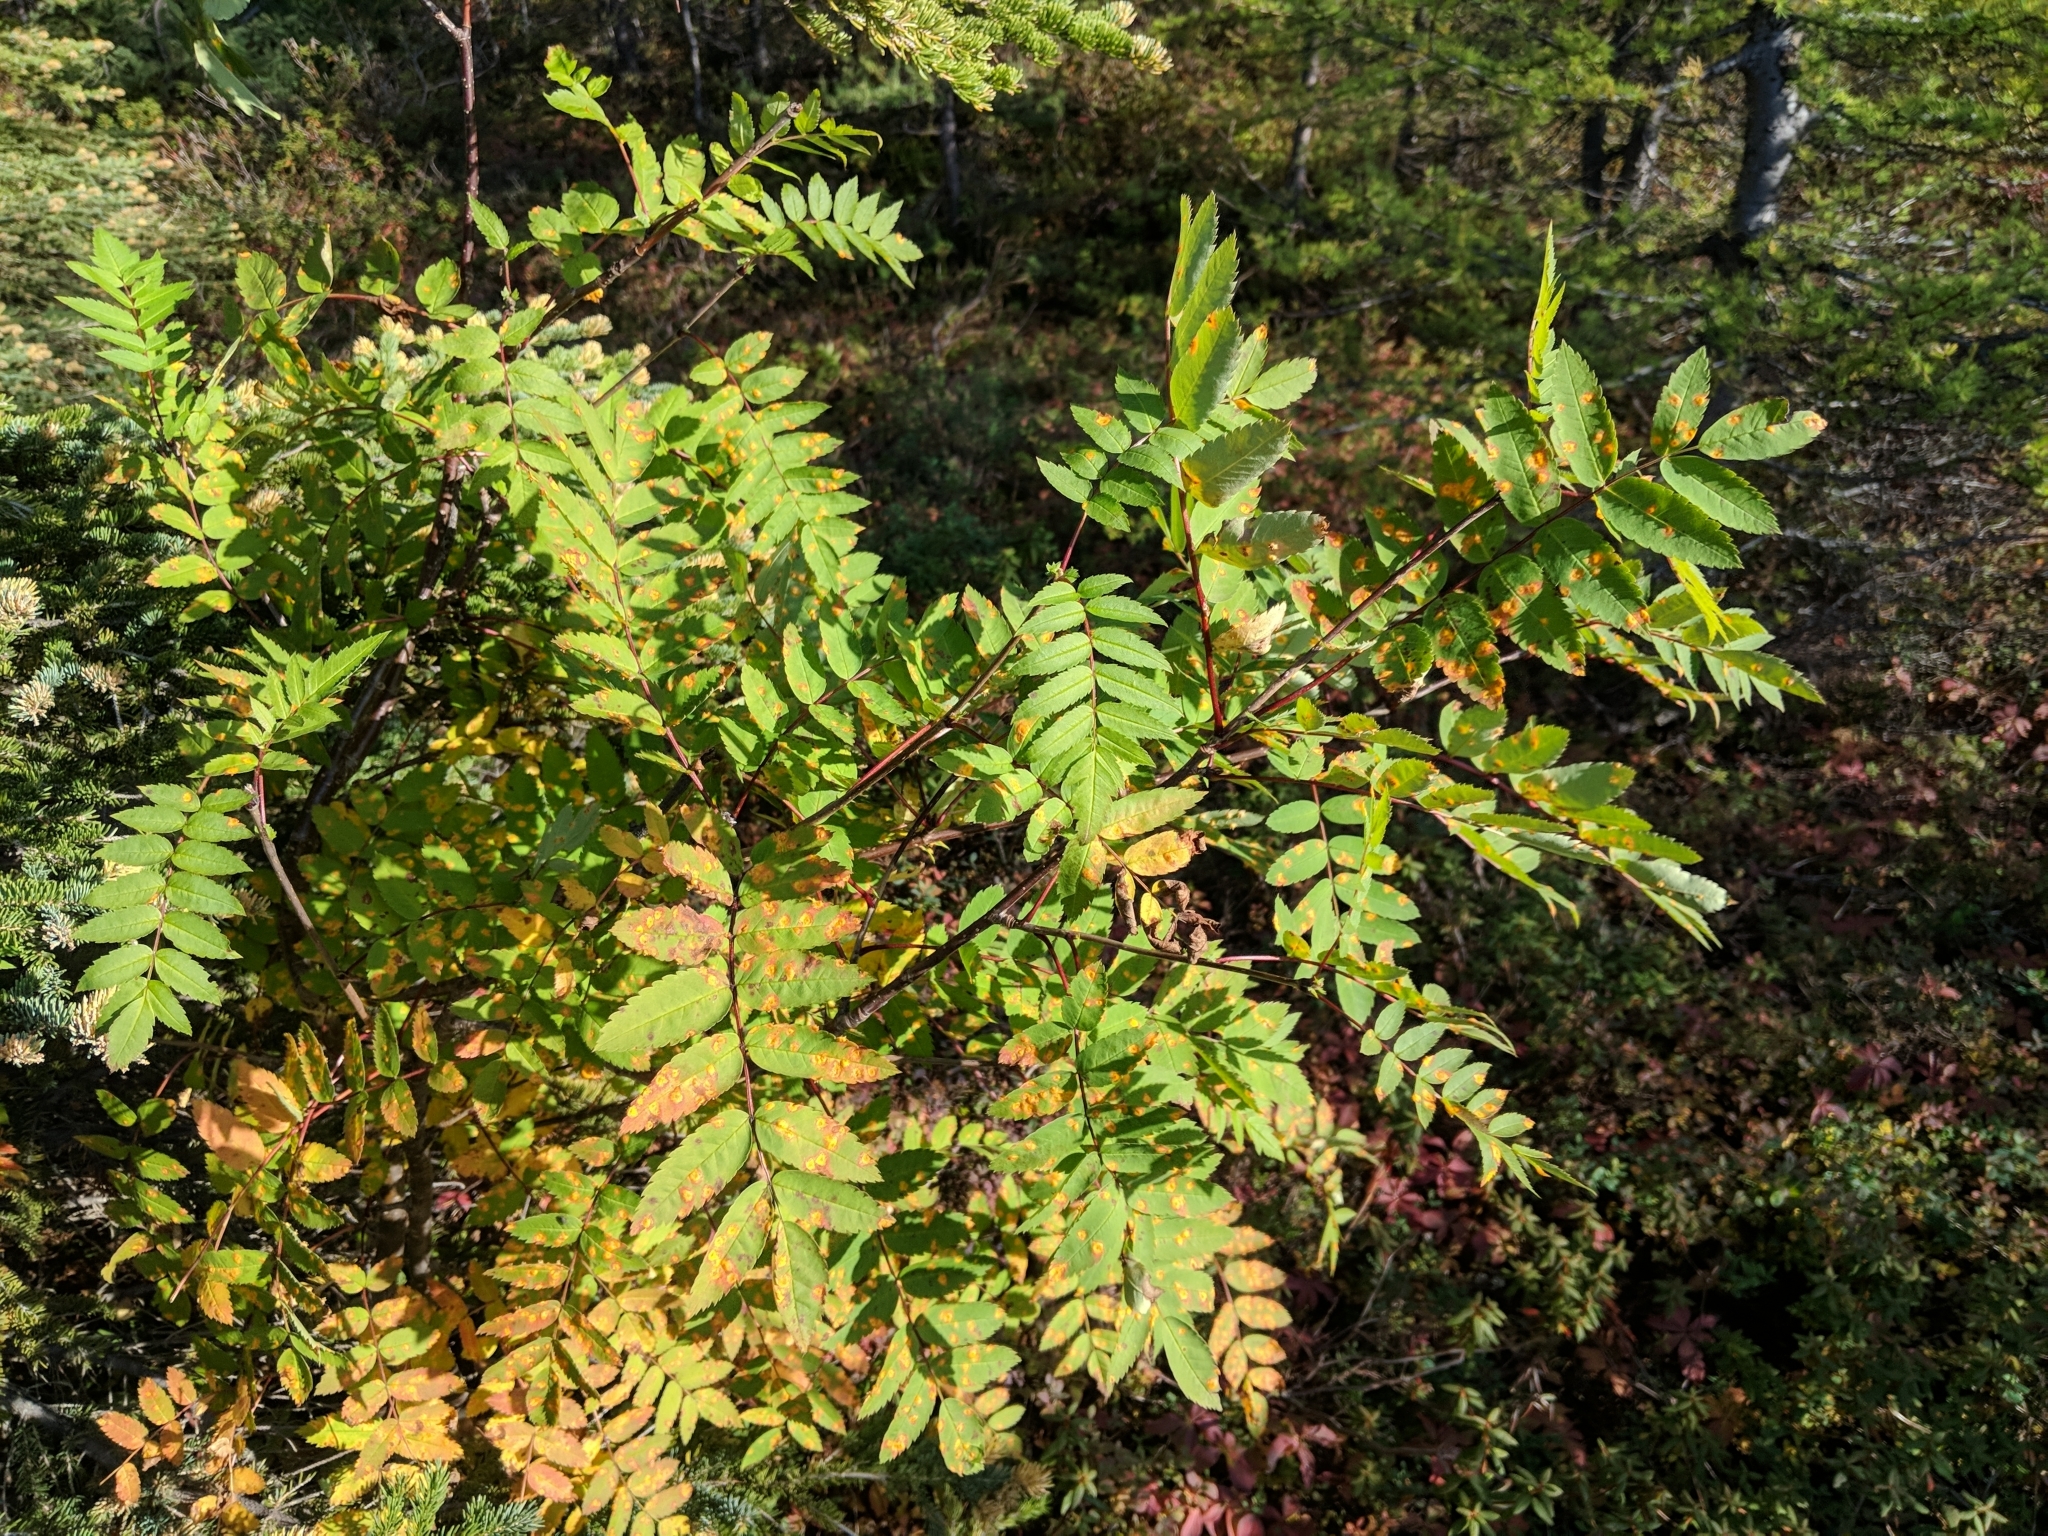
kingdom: Plantae
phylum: Tracheophyta
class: Magnoliopsida
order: Rosales
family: Rosaceae
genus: Sorbus
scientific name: Sorbus decora
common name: Northern mountain-ash
